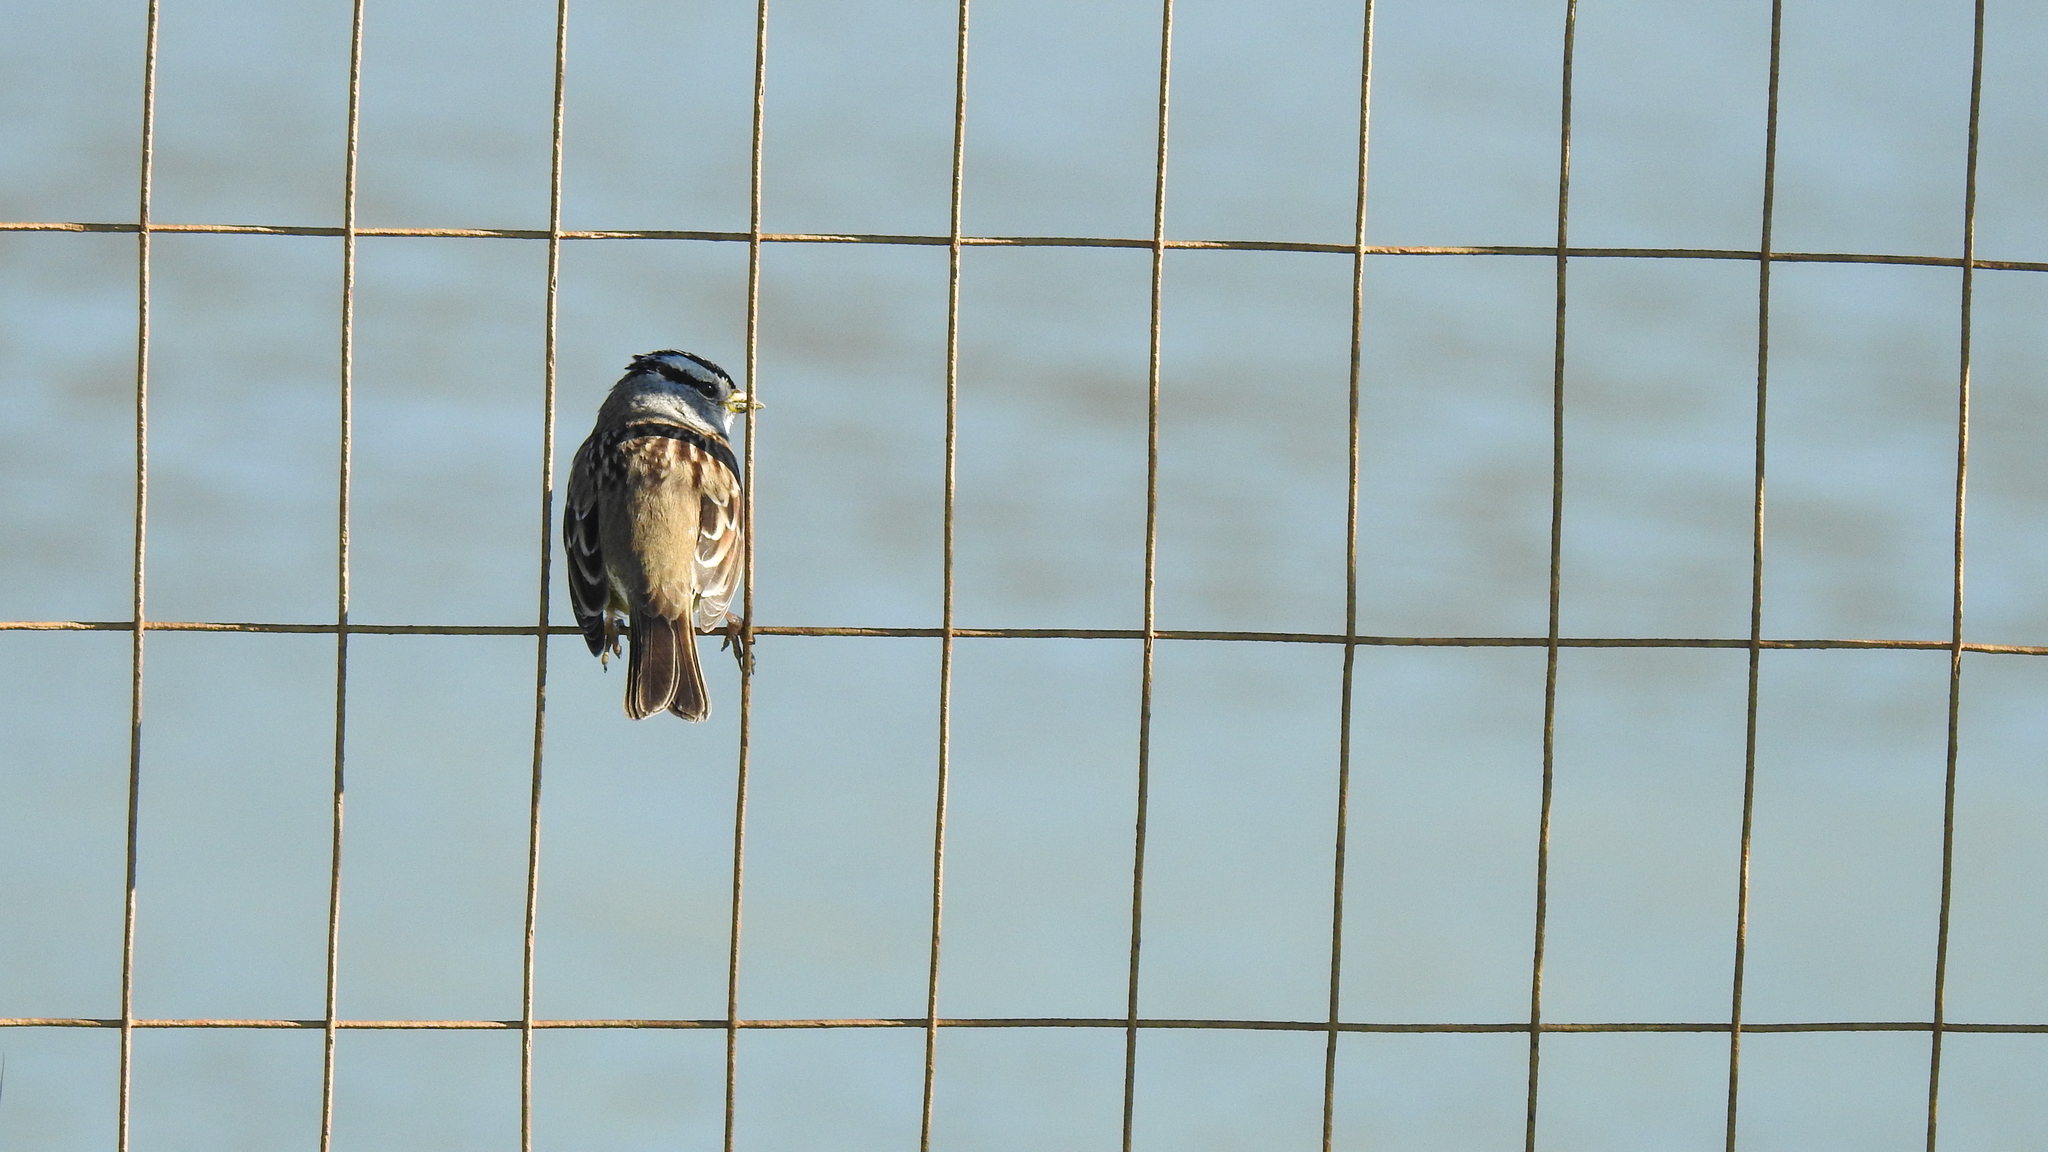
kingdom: Animalia
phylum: Chordata
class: Aves
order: Passeriformes
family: Passerellidae
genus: Zonotrichia
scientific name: Zonotrichia leucophrys
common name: White-crowned sparrow
